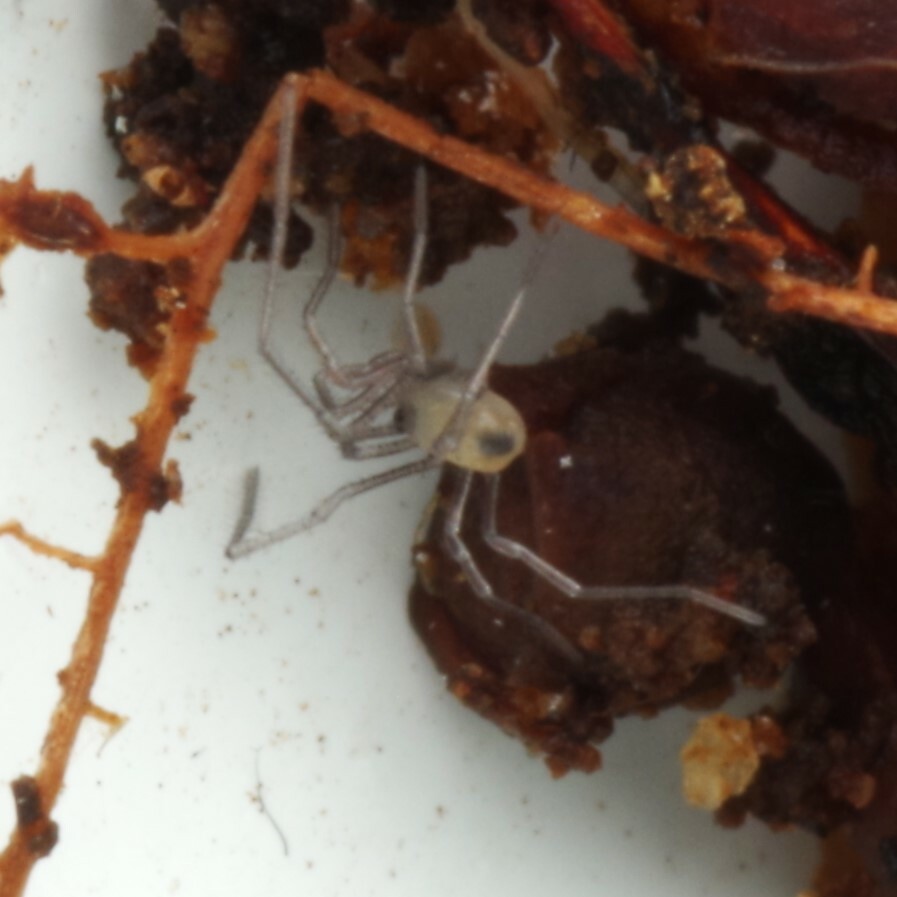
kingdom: Animalia
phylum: Arthropoda
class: Arachnida
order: Opiliones
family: Nemastomatidae
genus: Mitostoma
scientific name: Mitostoma chrysomelas
